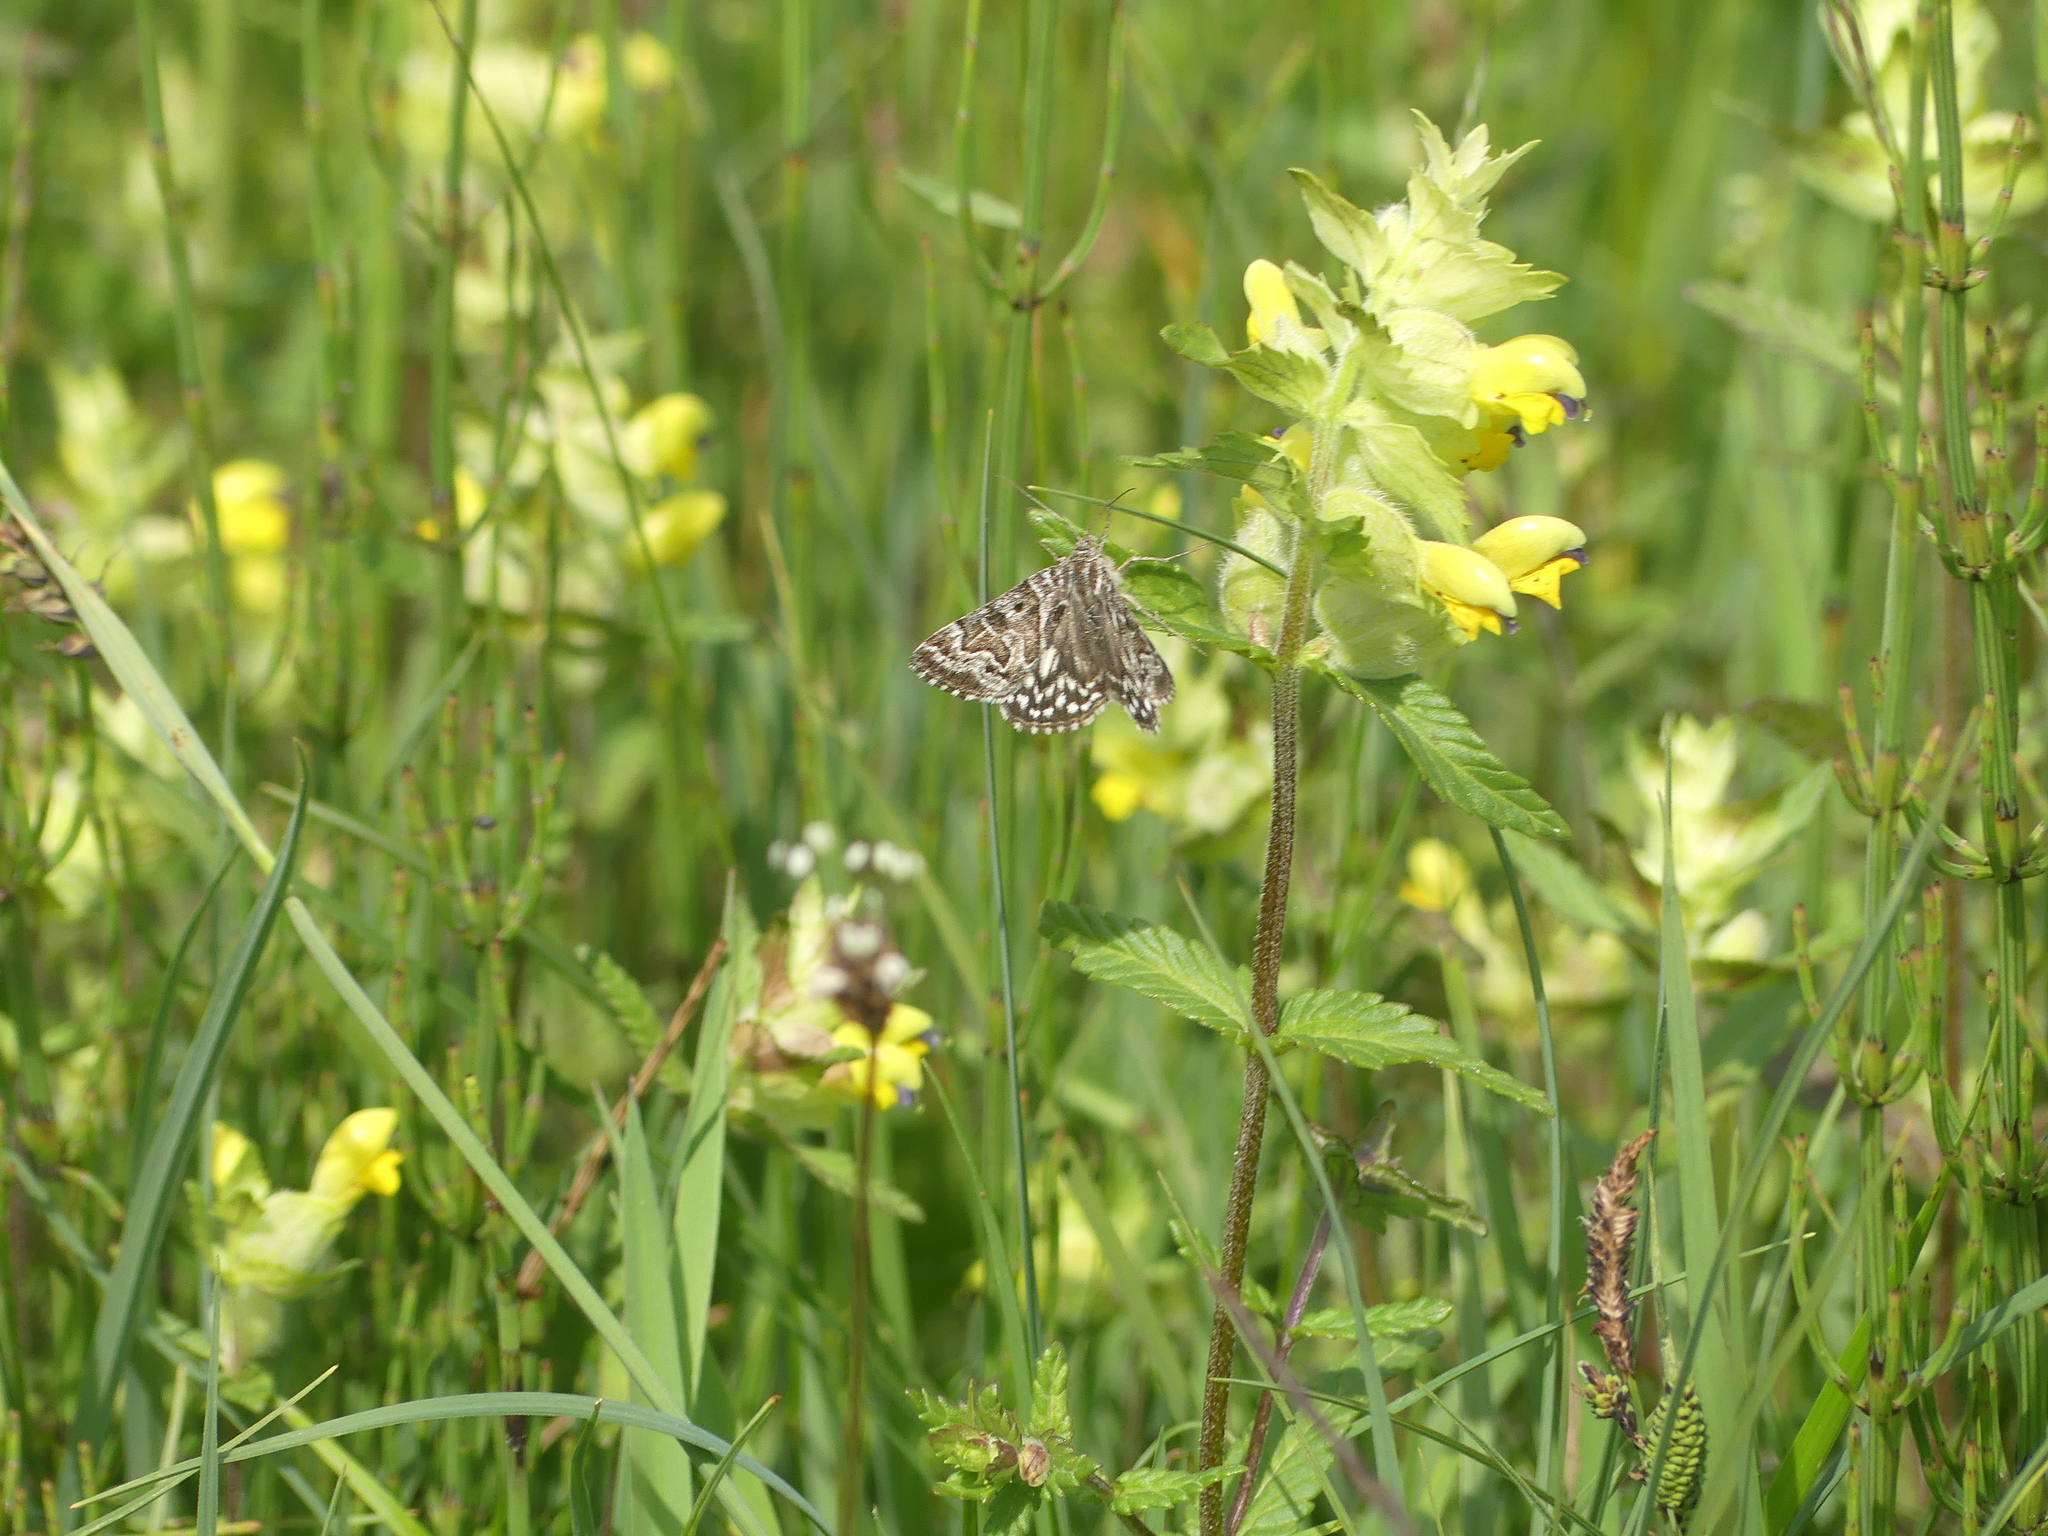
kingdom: Animalia
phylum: Arthropoda
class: Insecta
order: Lepidoptera
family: Erebidae
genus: Callistege
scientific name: Callistege mi
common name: Mother shipton
